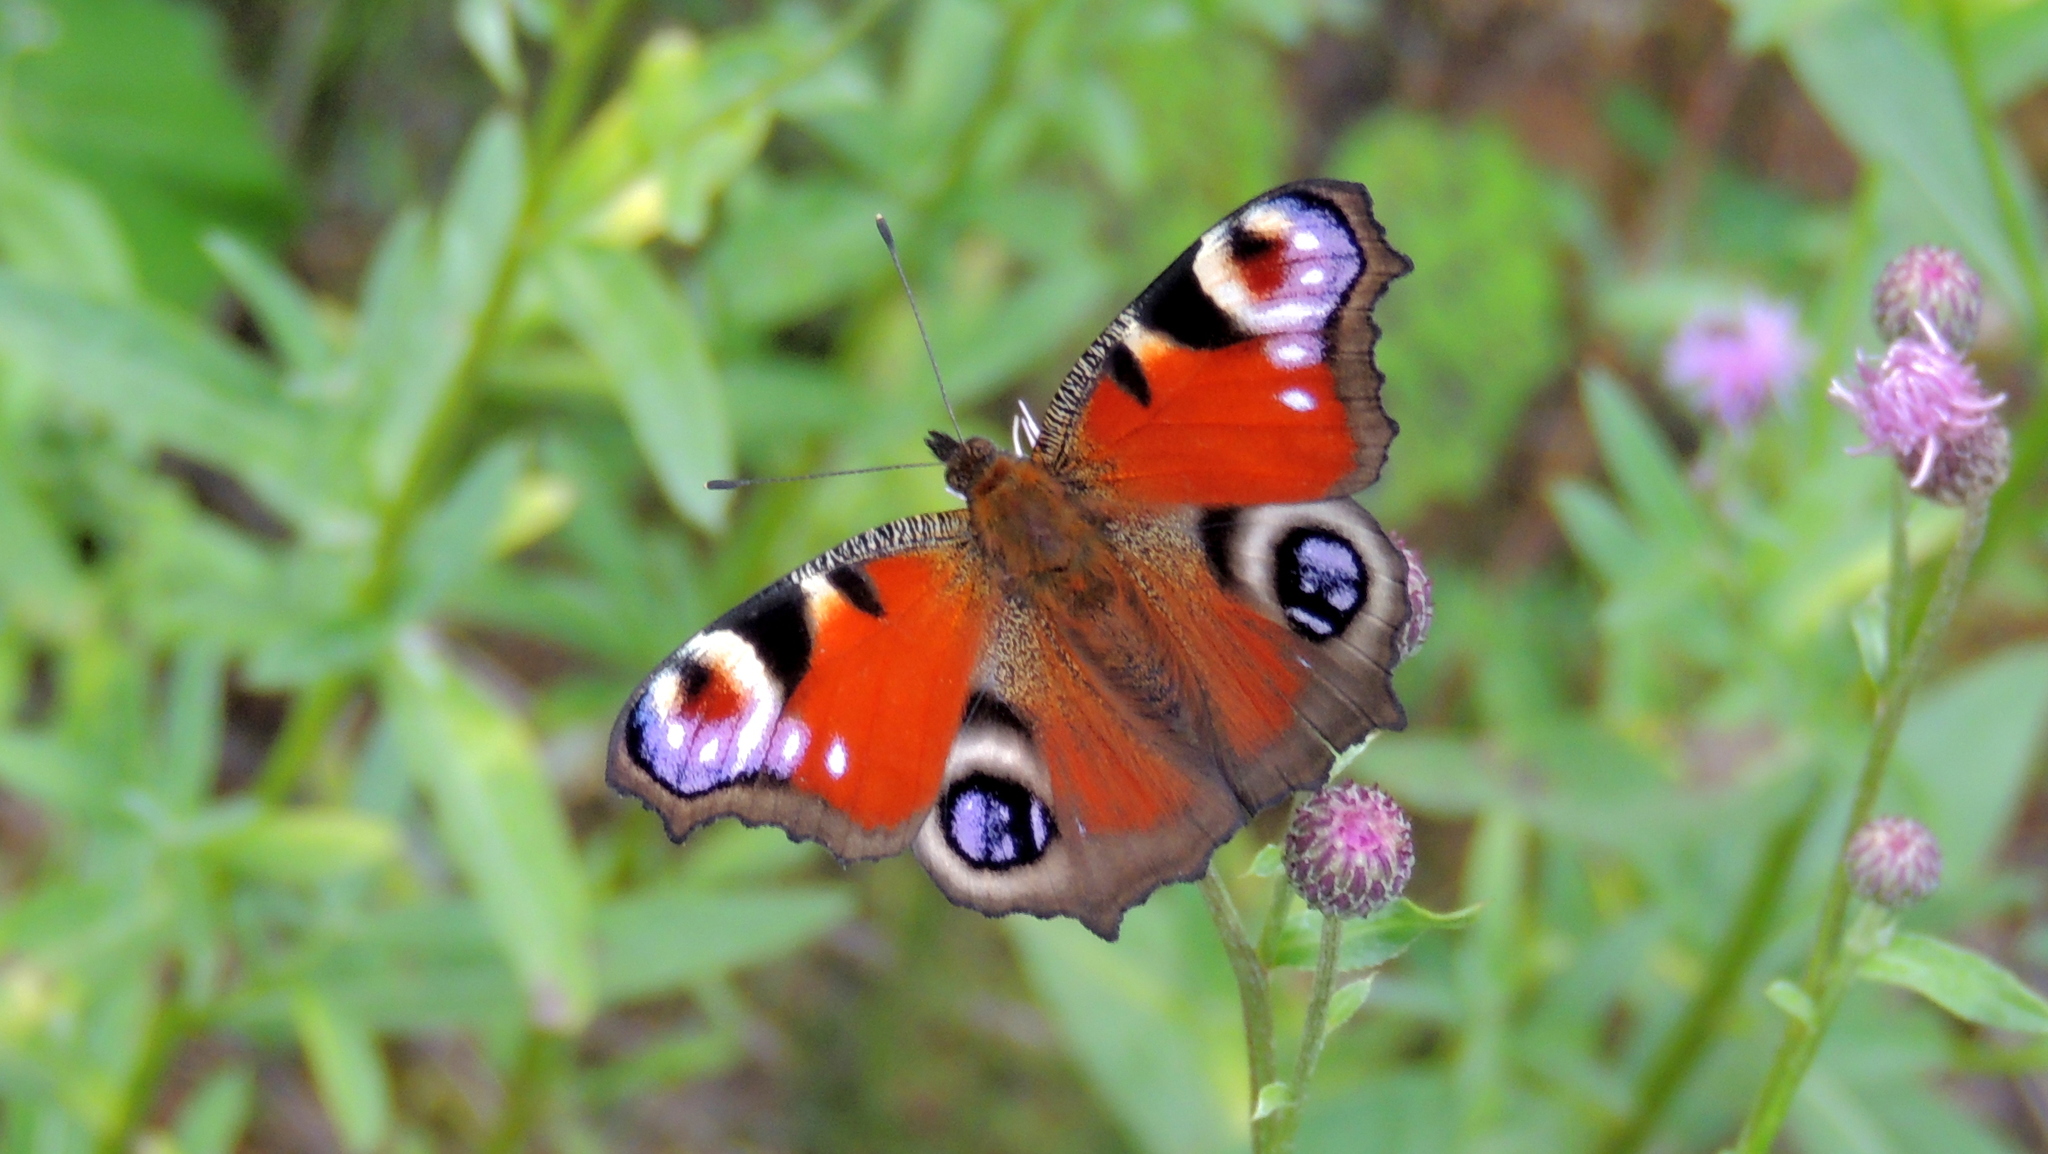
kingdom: Animalia
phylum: Arthropoda
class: Insecta
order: Lepidoptera
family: Nymphalidae
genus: Aglais
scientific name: Aglais io
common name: Peacock
